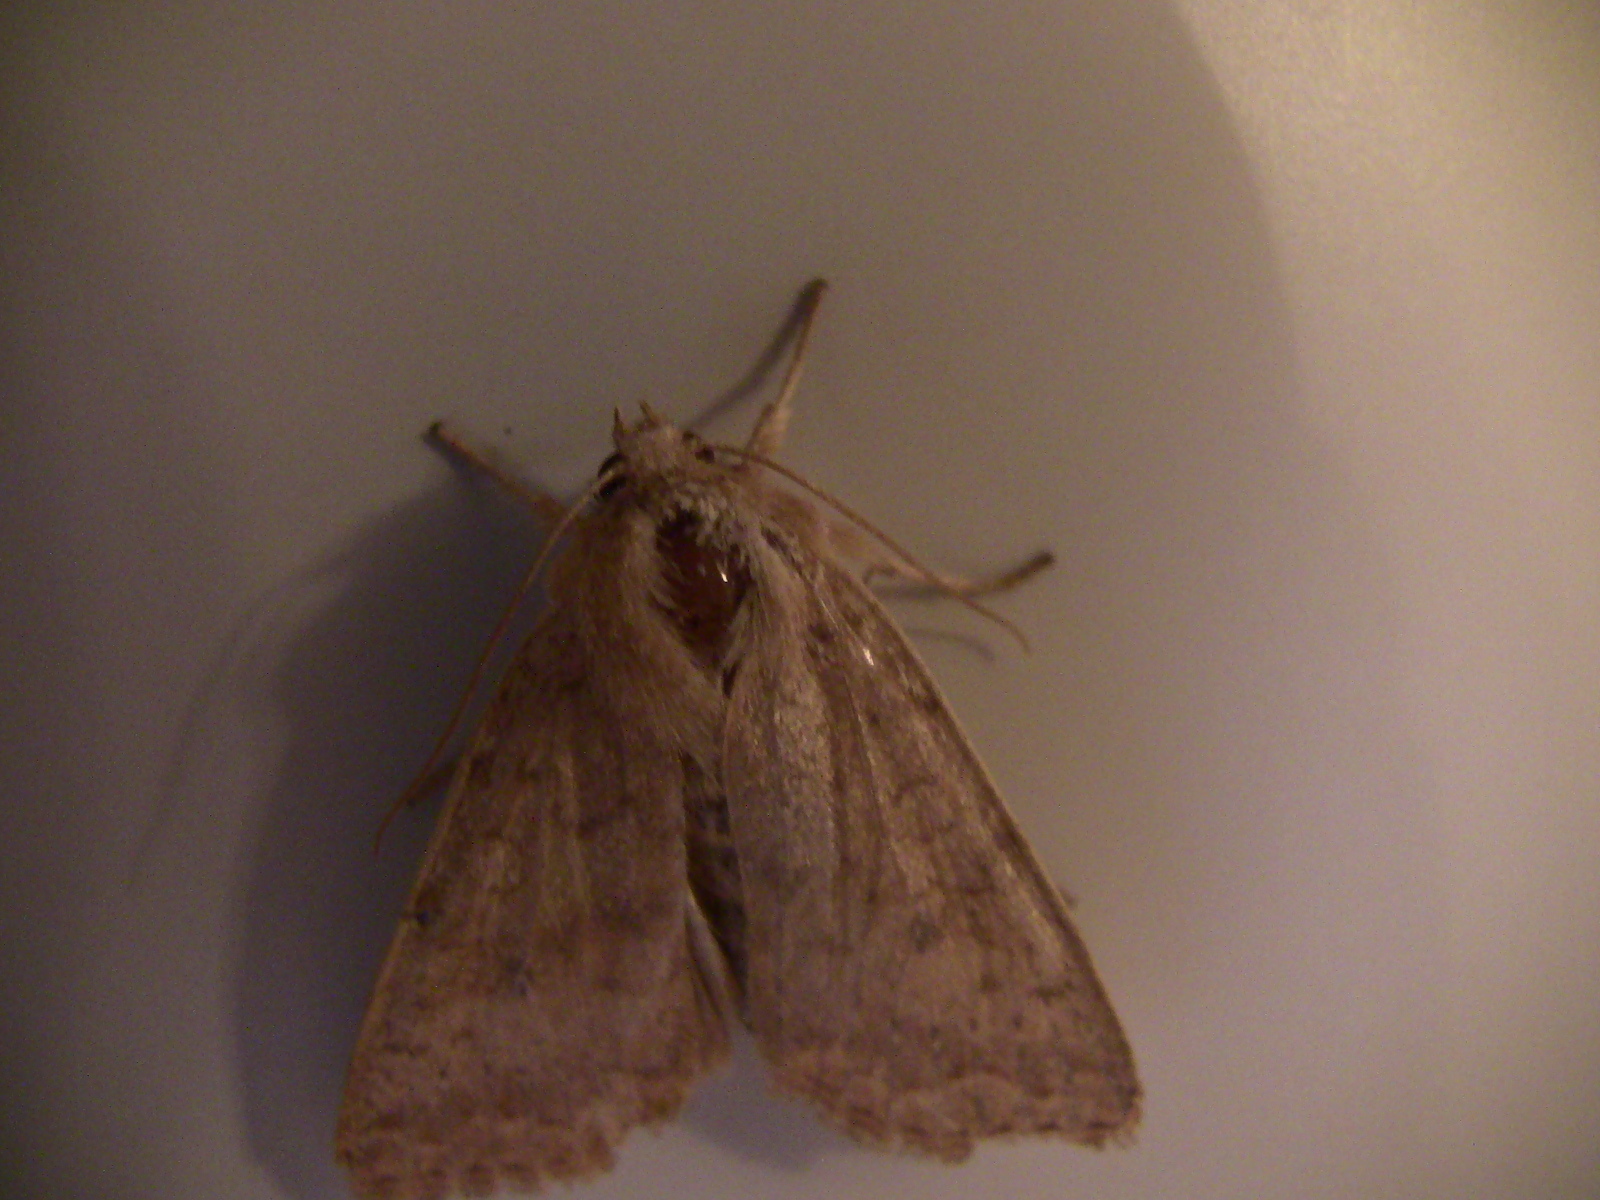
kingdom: Animalia
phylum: Arthropoda
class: Insecta
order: Lepidoptera
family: Noctuidae
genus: Agrochola
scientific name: Agrochola bicolorago
